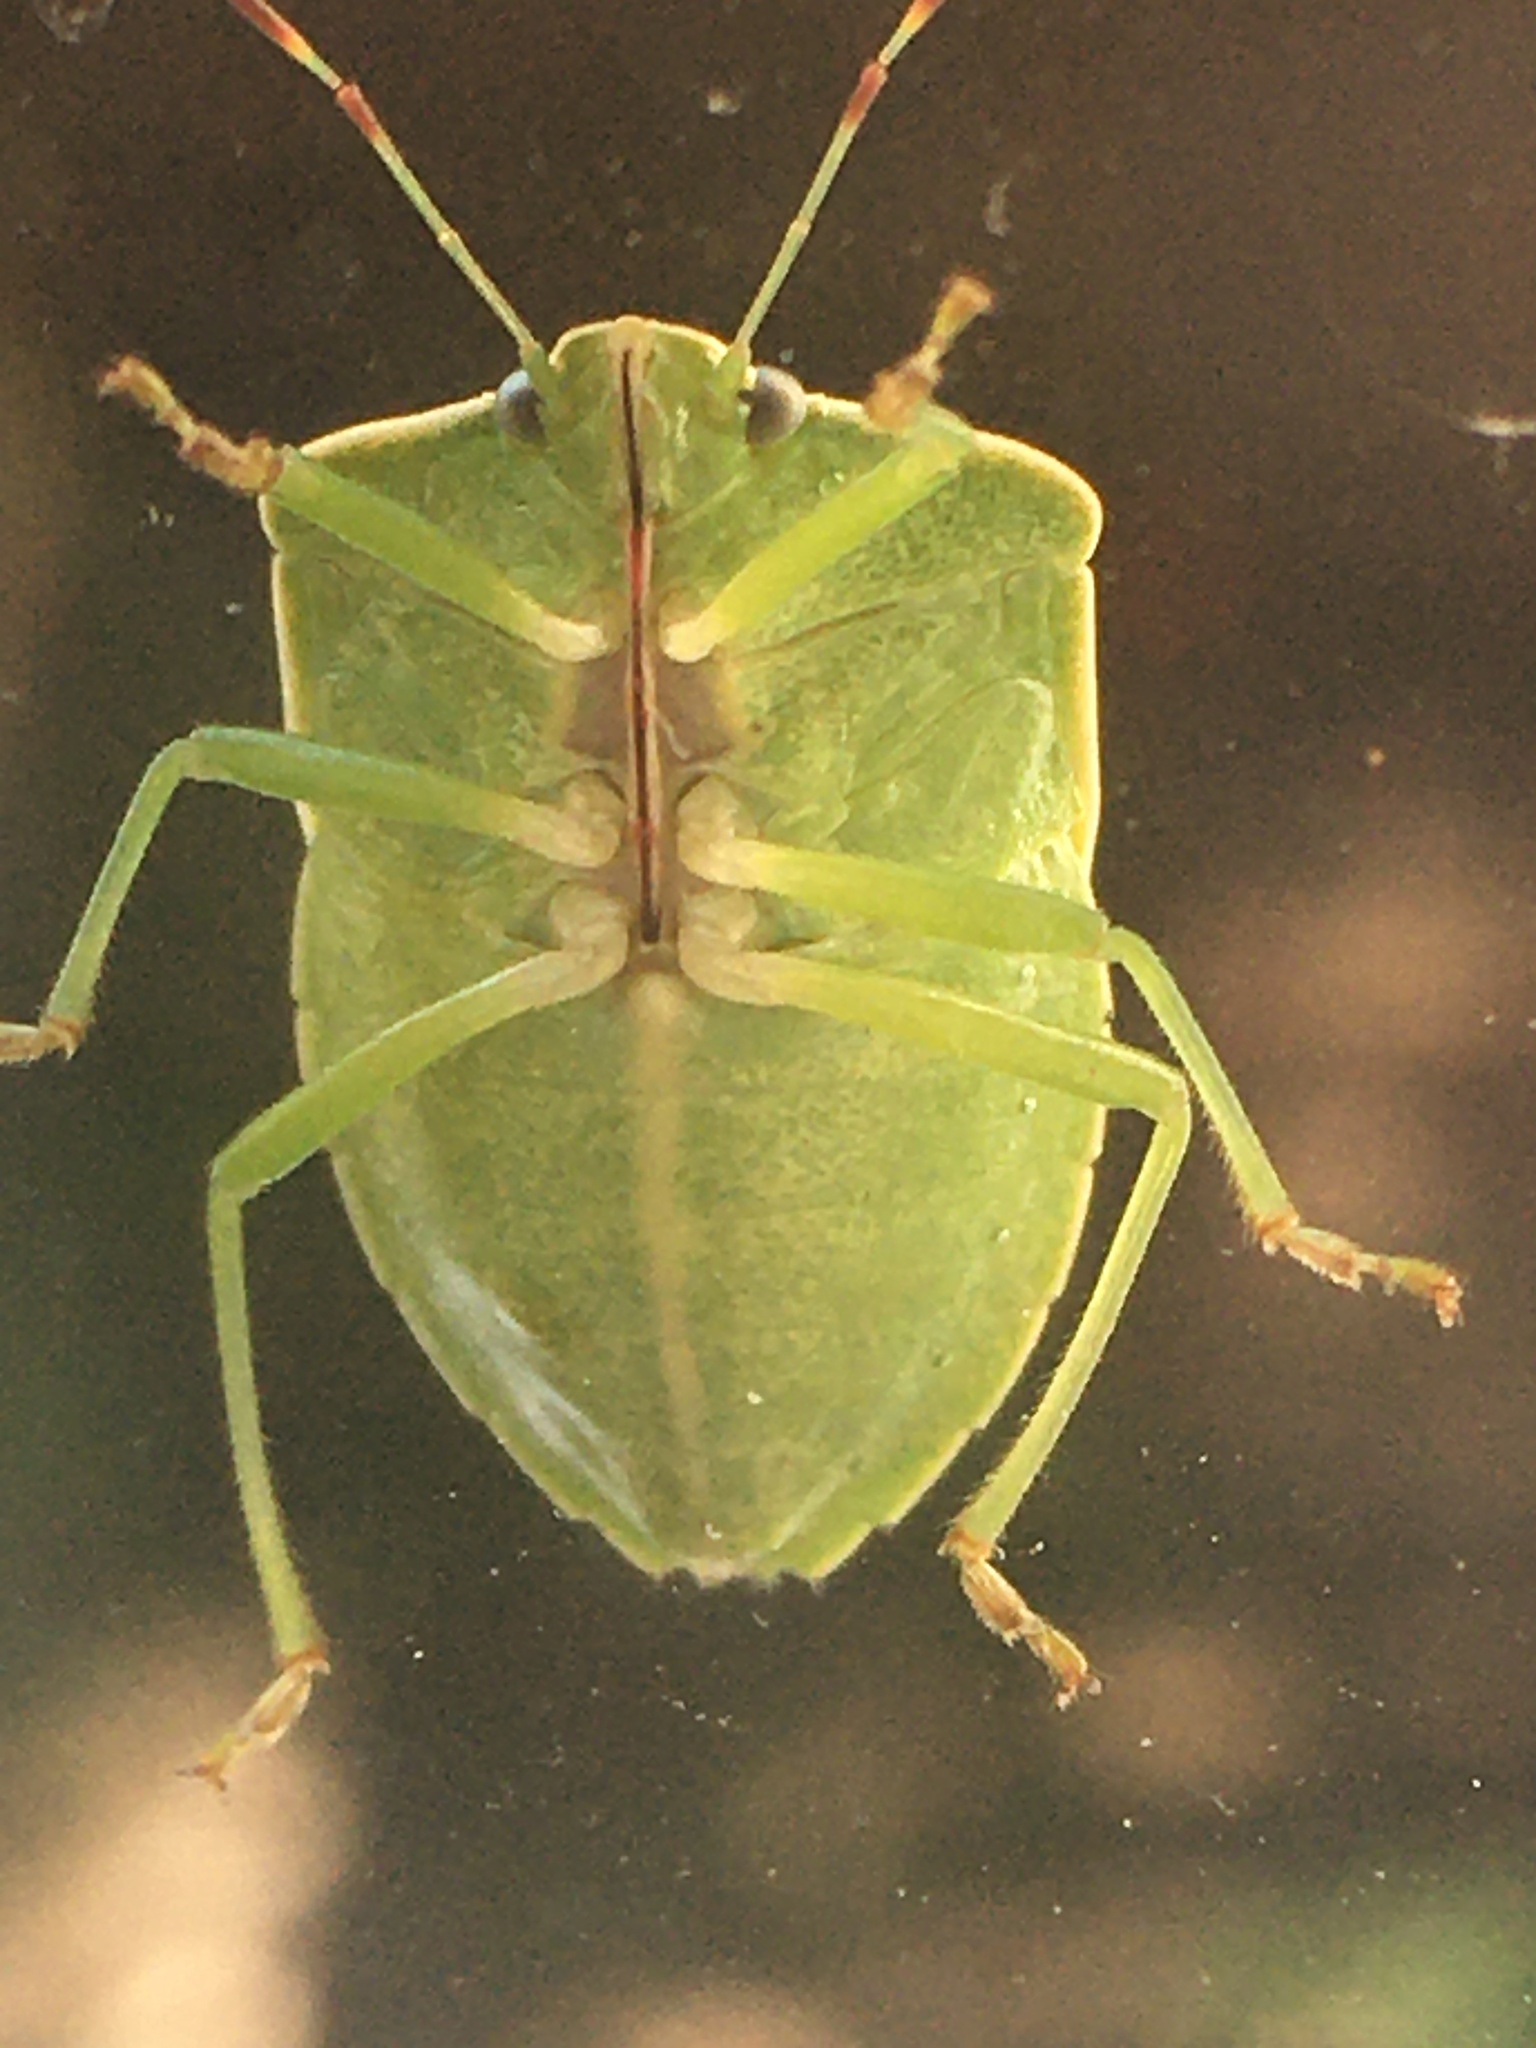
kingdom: Animalia
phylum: Arthropoda
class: Insecta
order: Hemiptera
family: Pentatomidae
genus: Nezara
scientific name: Nezara viridula
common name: Southern green stink bug
